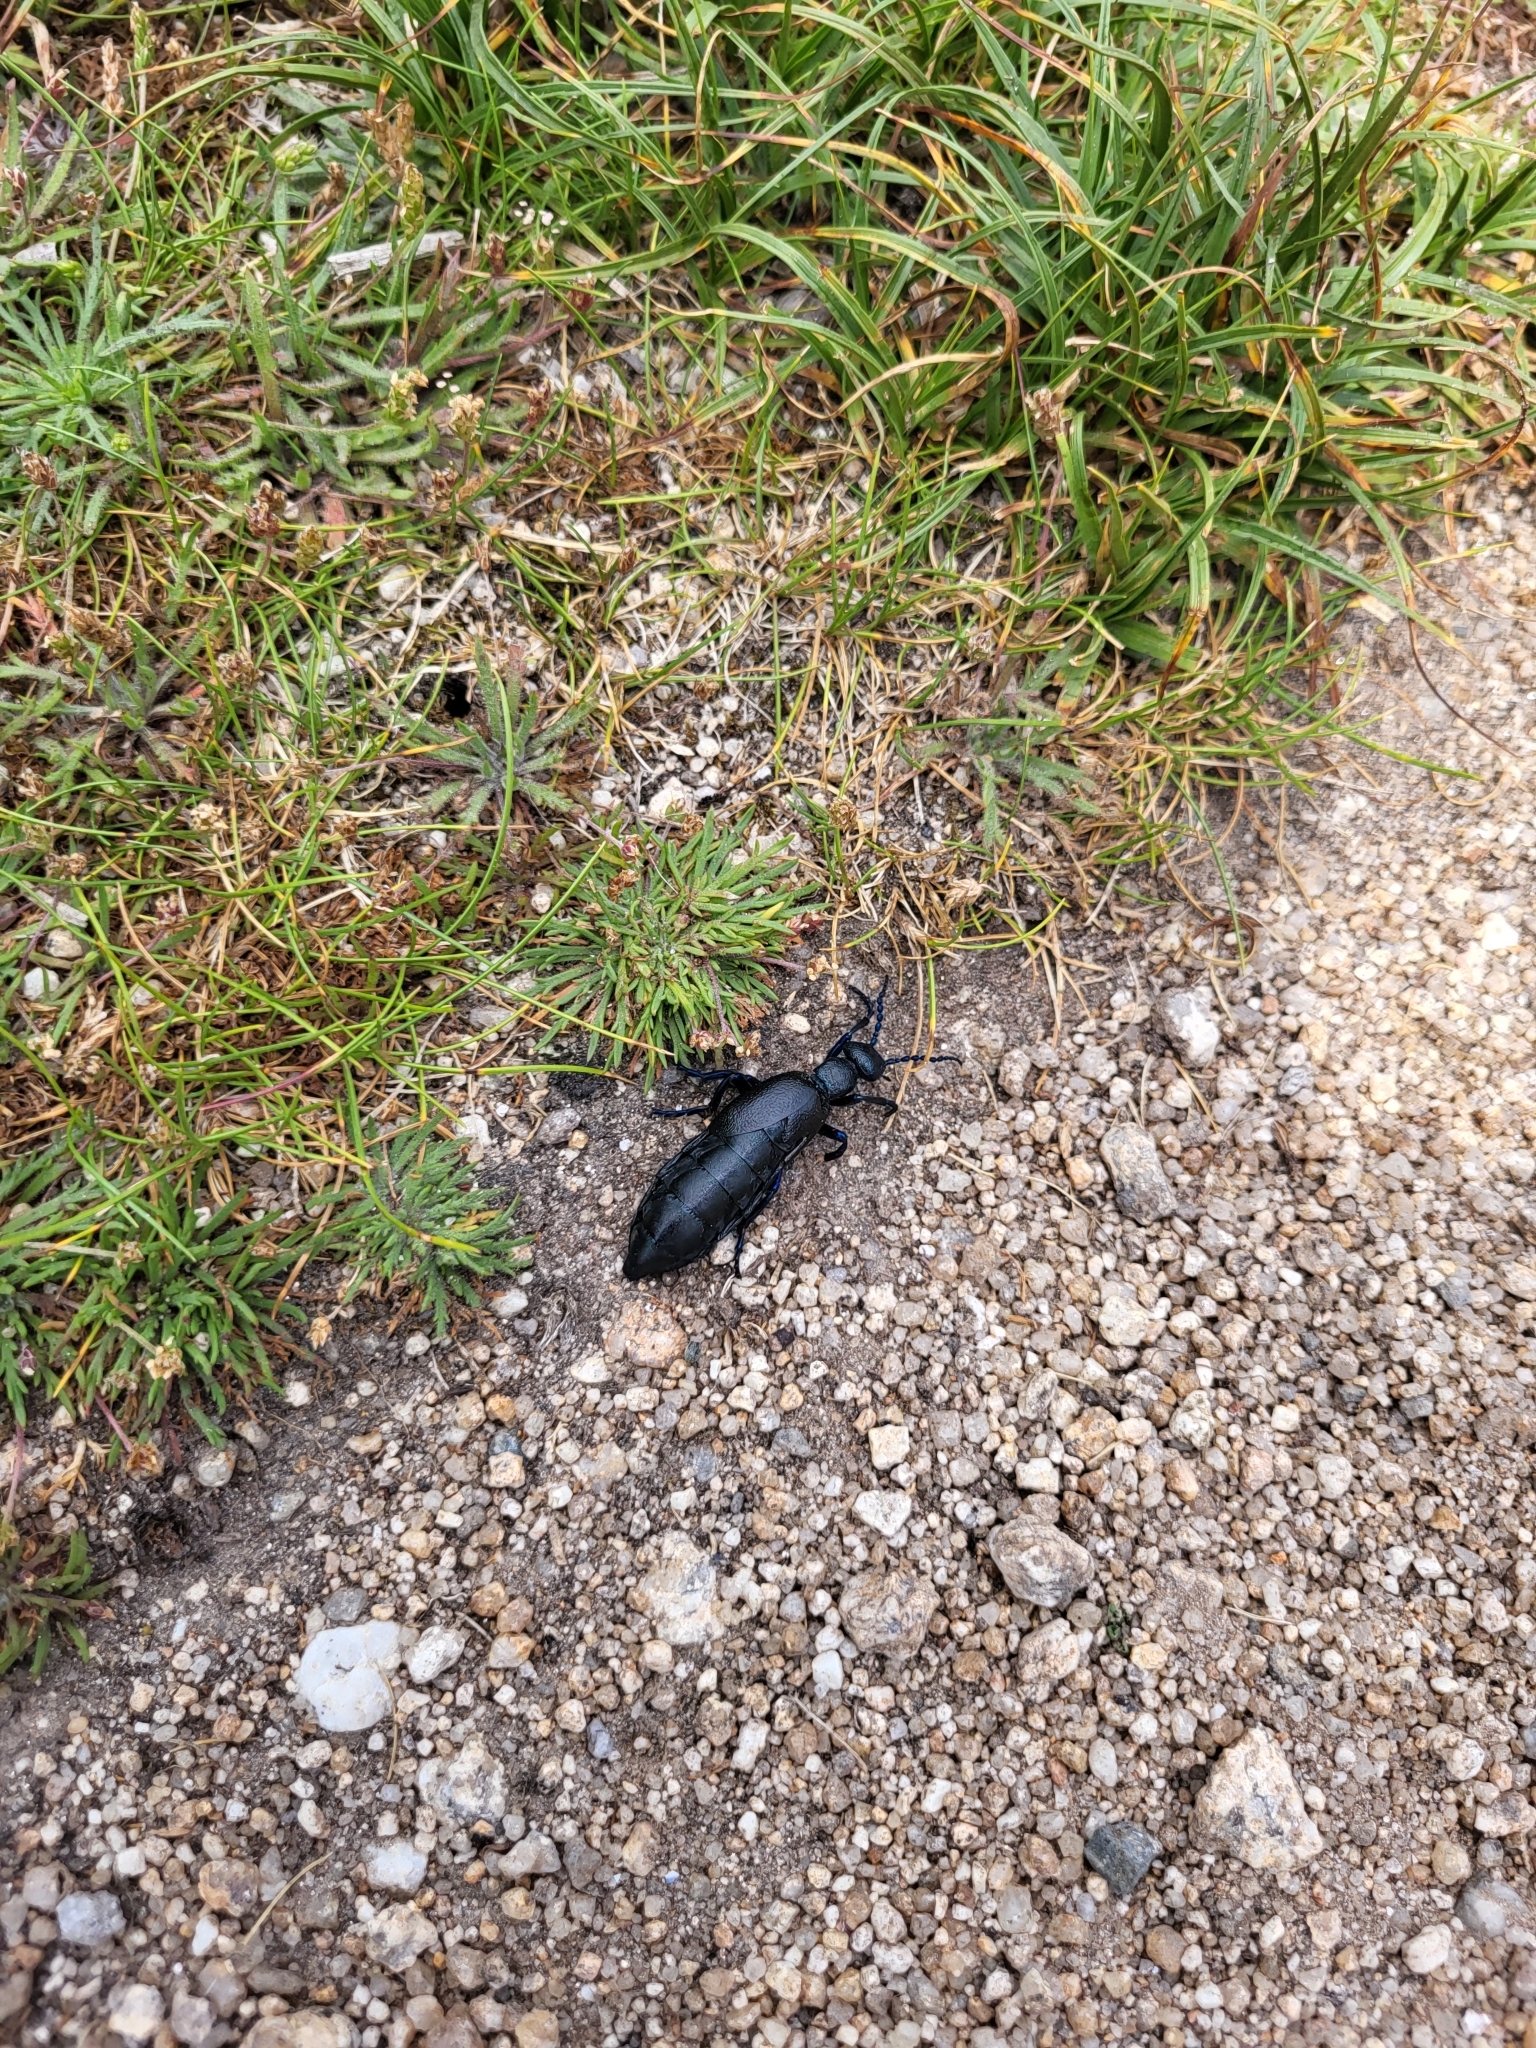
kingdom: Animalia
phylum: Arthropoda
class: Insecta
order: Coleoptera
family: Meloidae
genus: Meloe
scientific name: Meloe proscarabaeus
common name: Black oil-beetle
